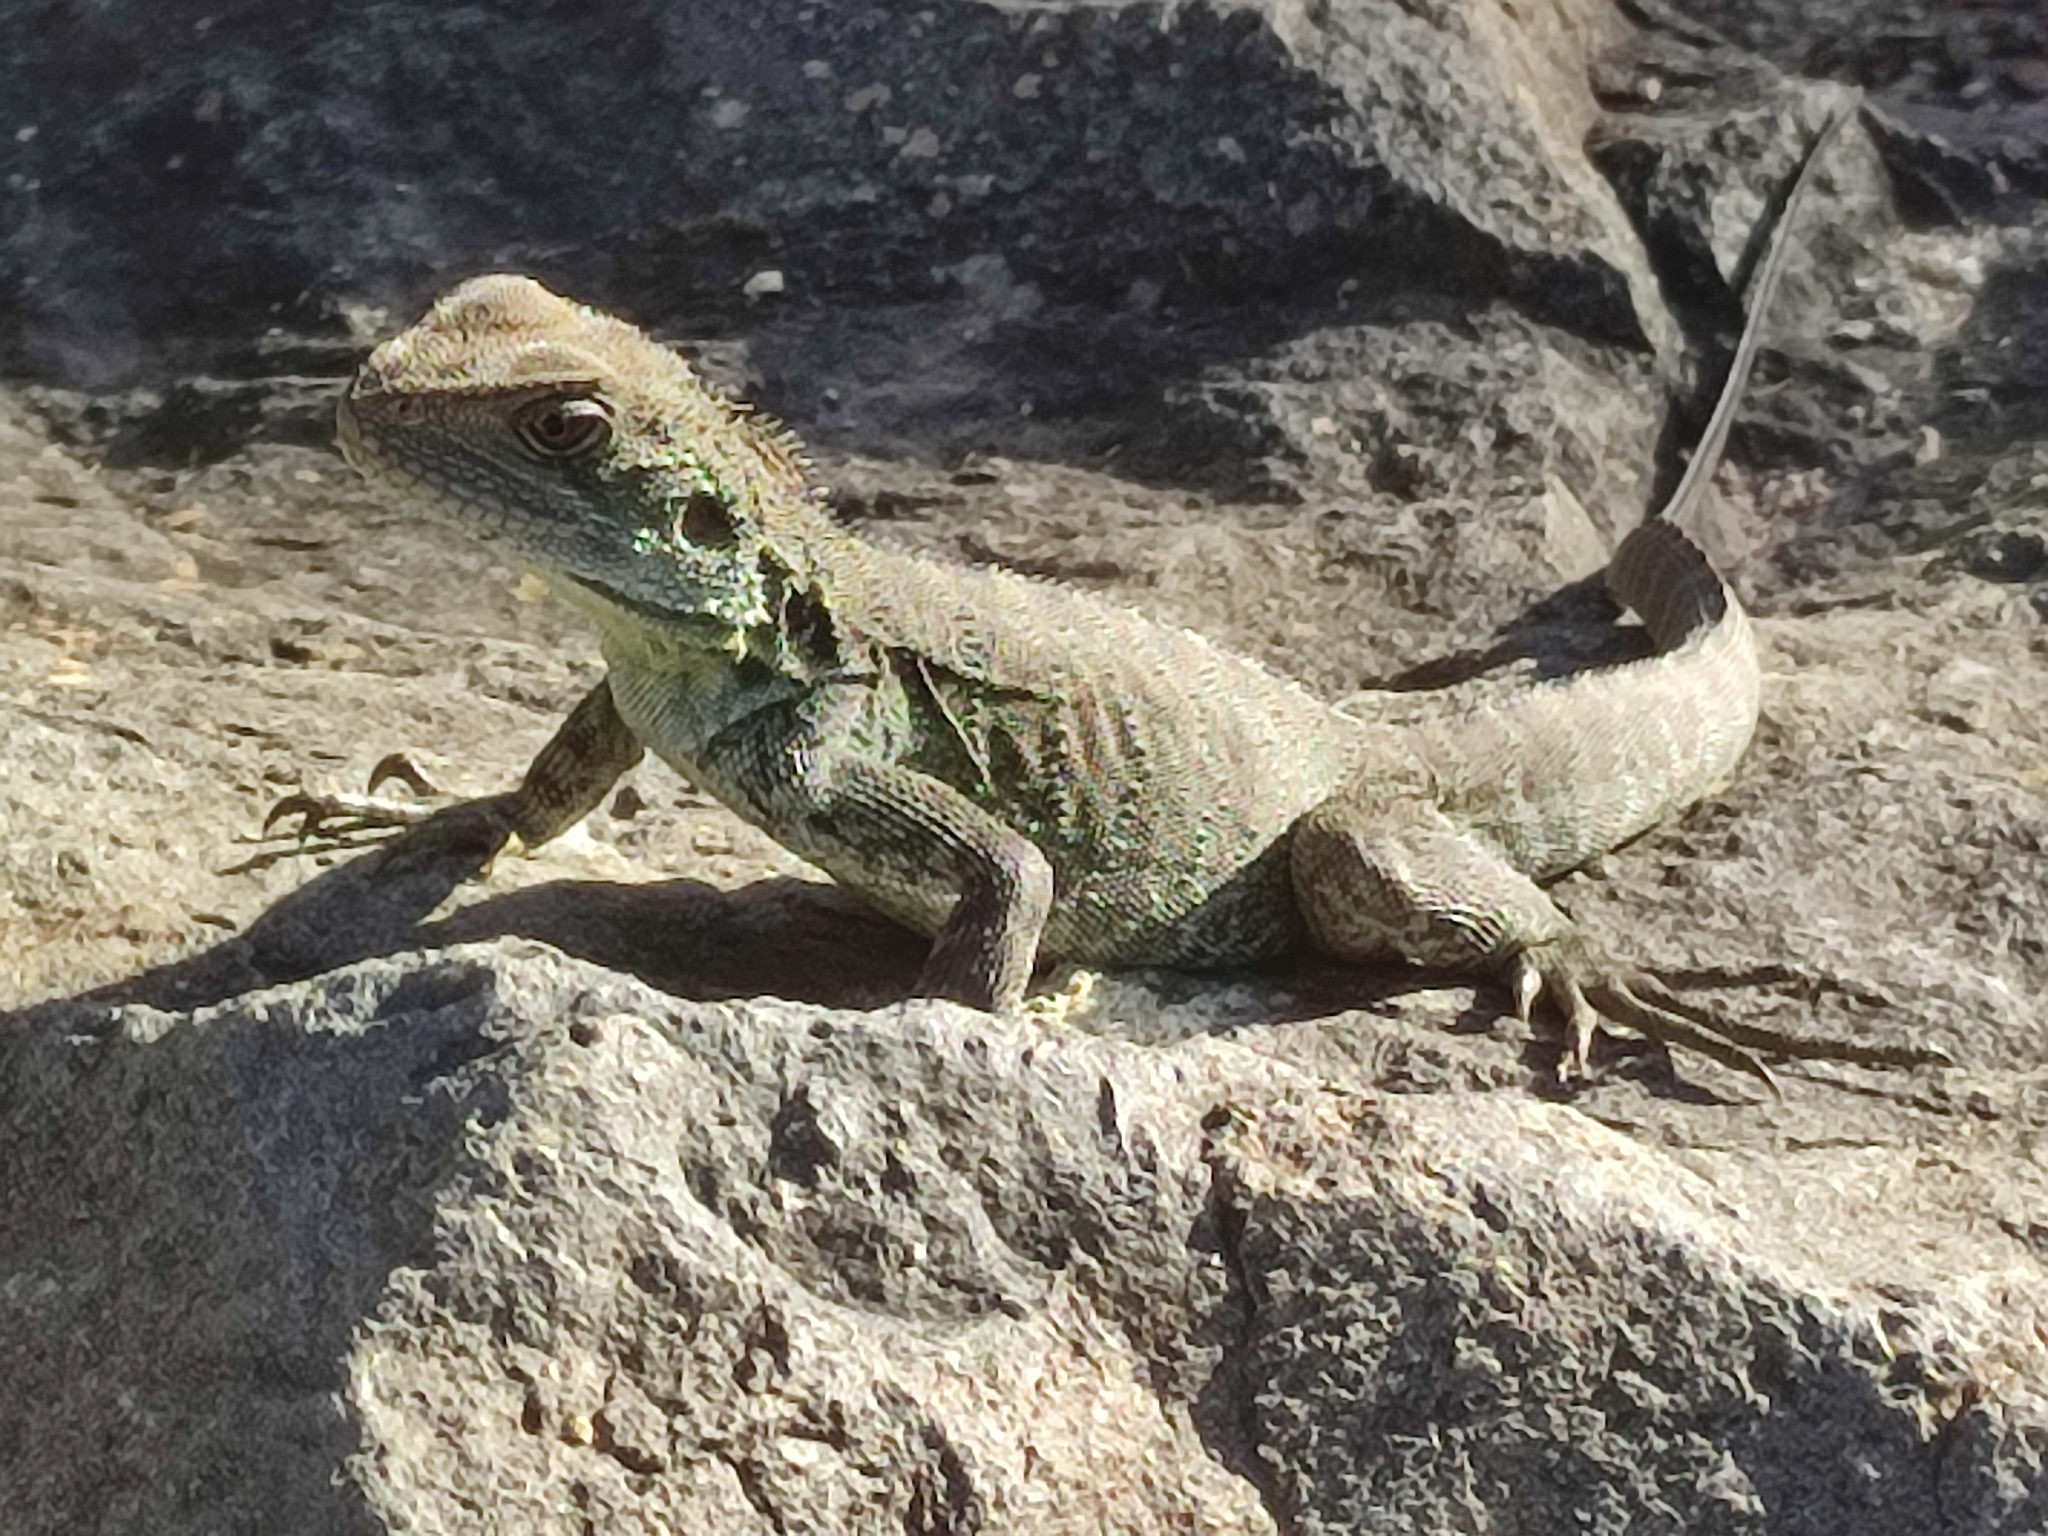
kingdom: Animalia
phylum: Chordata
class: Squamata
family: Agamidae
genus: Intellagama
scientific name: Intellagama lesueurii
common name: Eastern water dragon
